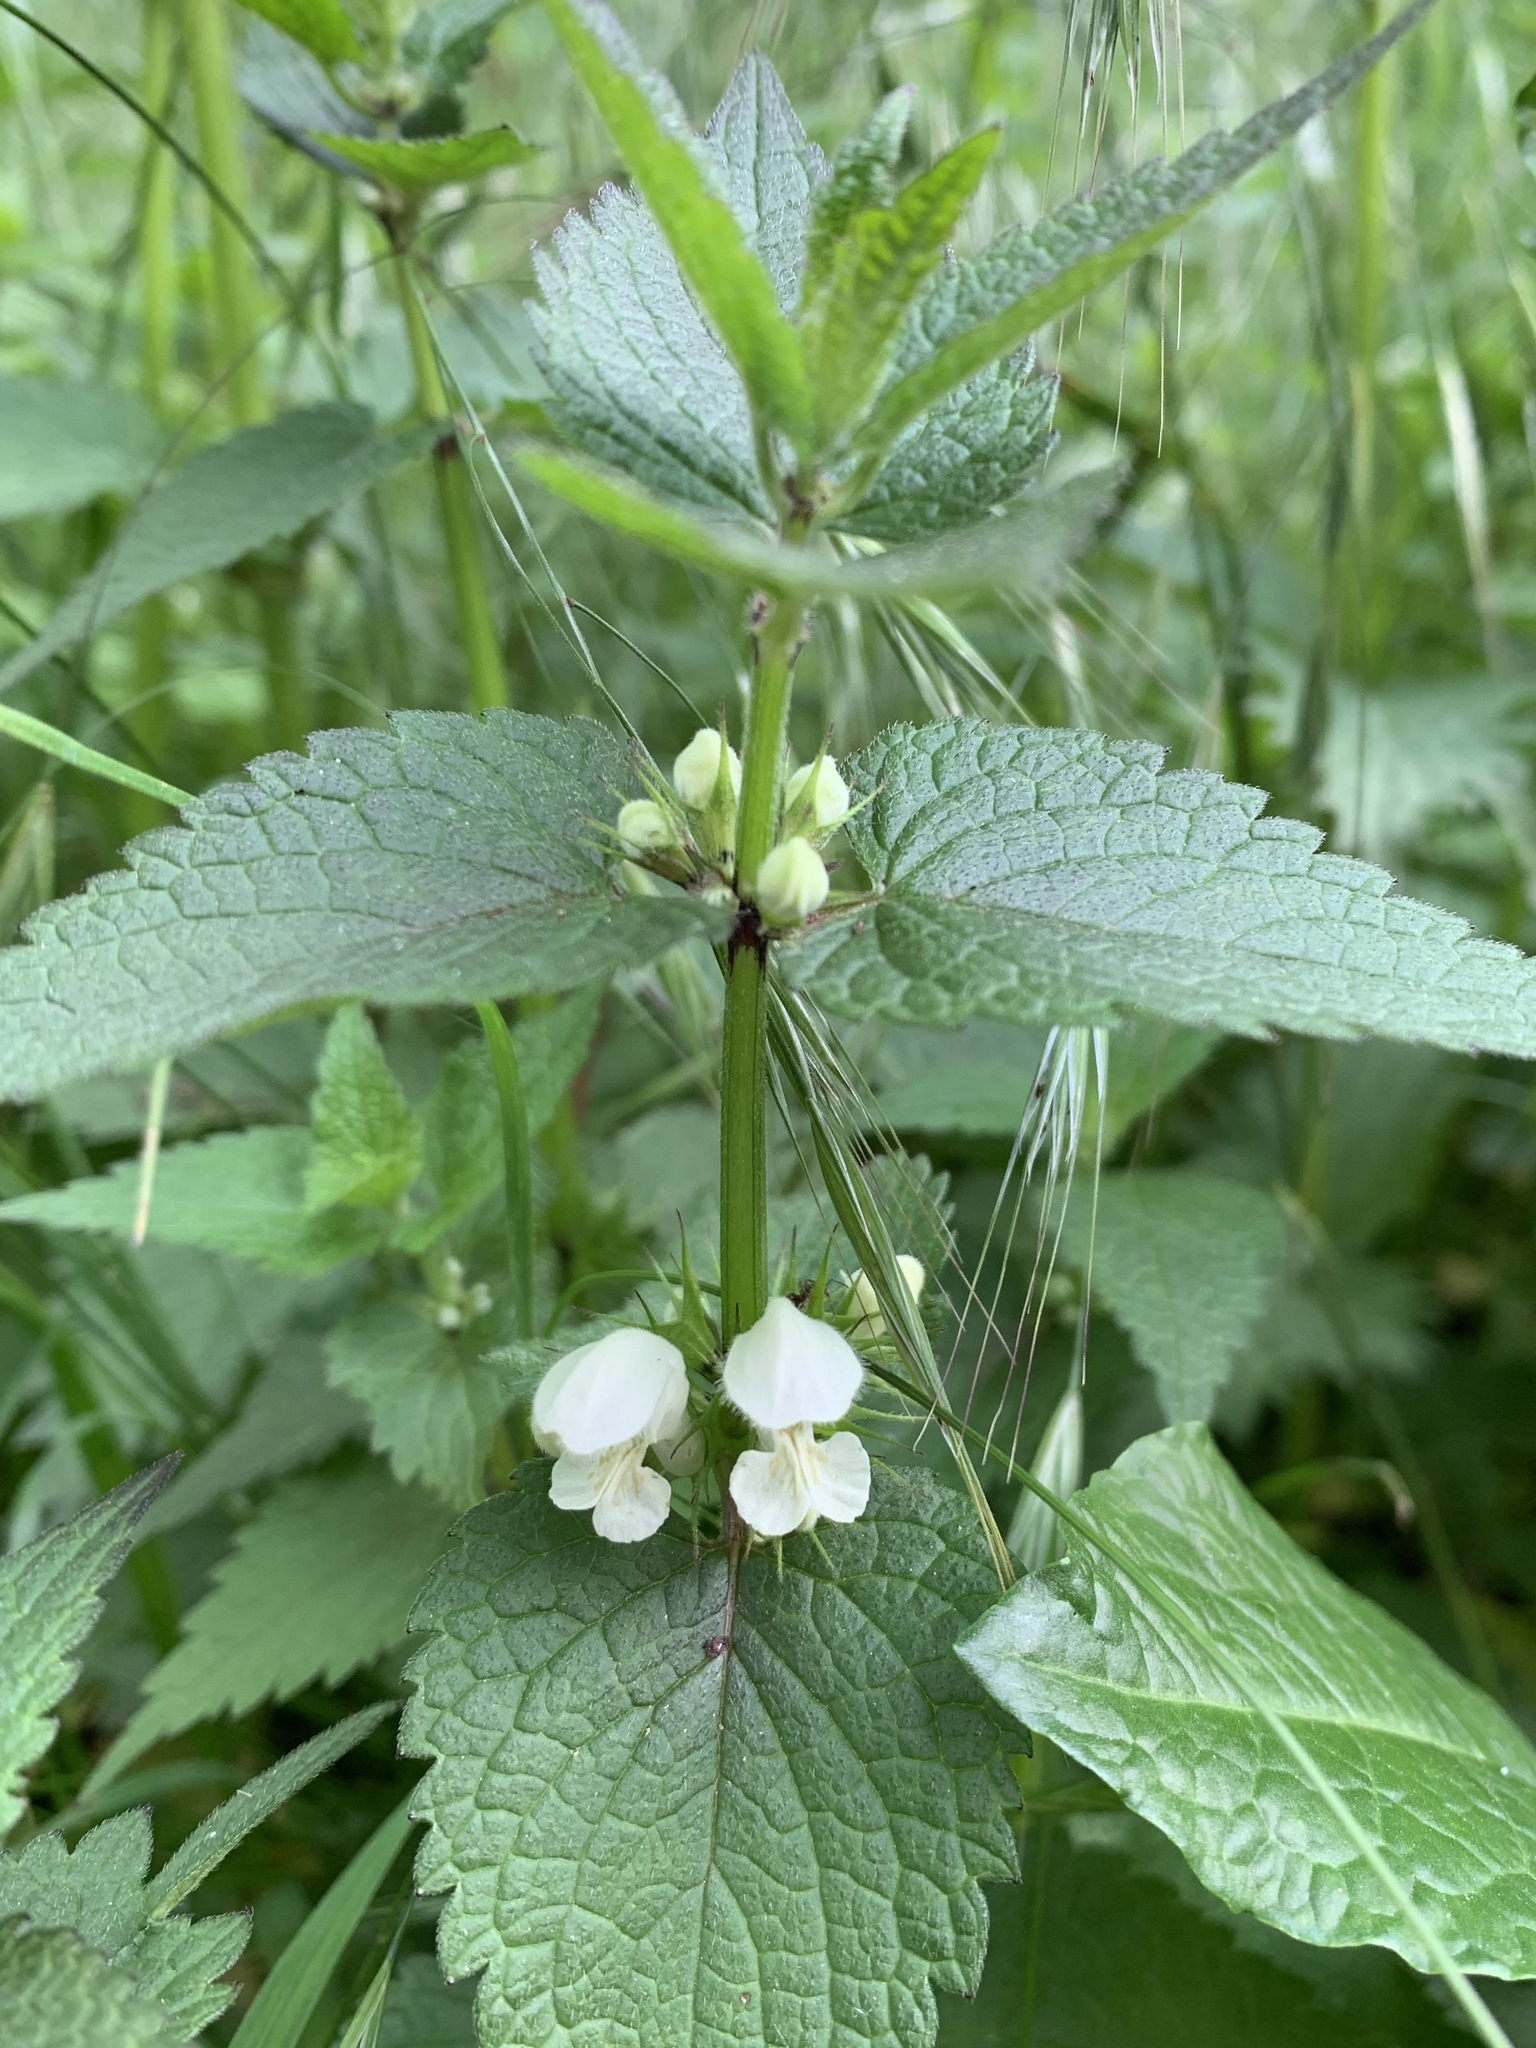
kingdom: Plantae
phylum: Tracheophyta
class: Magnoliopsida
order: Lamiales
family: Lamiaceae
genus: Lamium
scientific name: Lamium album
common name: White dead-nettle
